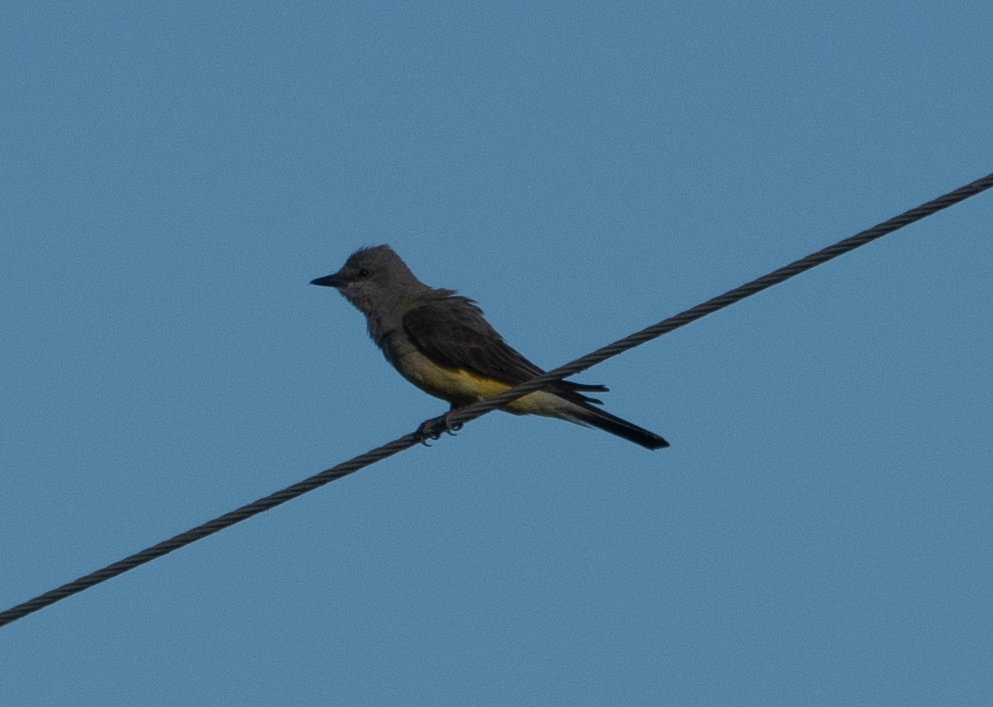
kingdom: Animalia
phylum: Chordata
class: Aves
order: Passeriformes
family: Tyrannidae
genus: Tyrannus
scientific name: Tyrannus verticalis
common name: Western kingbird
